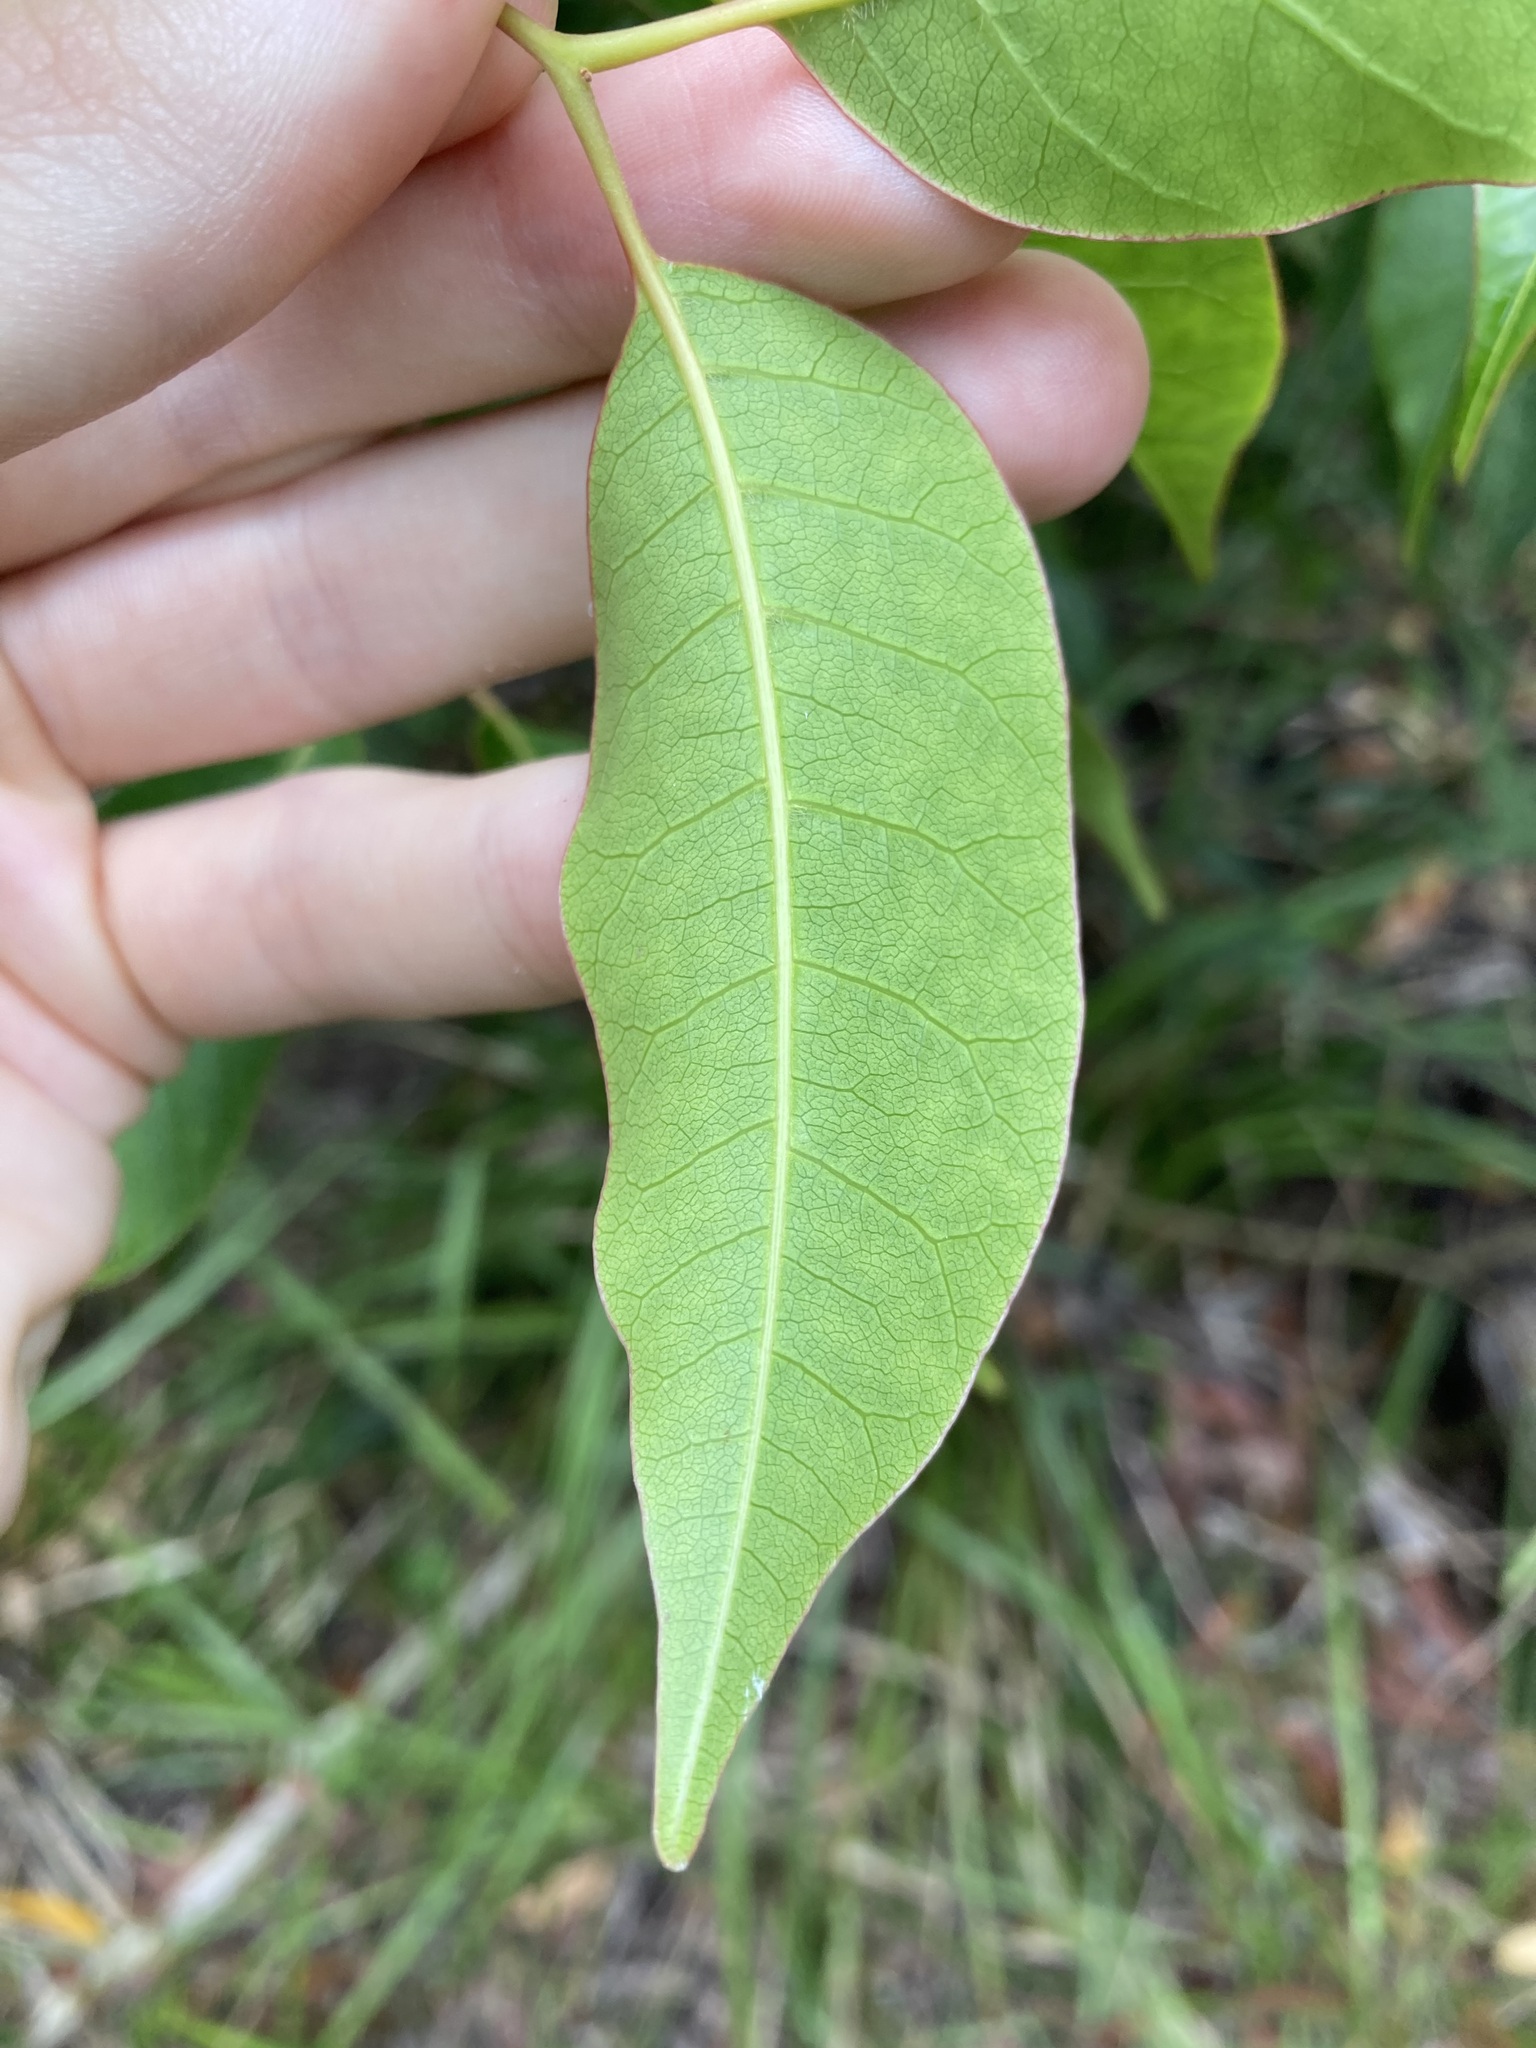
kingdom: Plantae
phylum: Tracheophyta
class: Magnoliopsida
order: Sapindales
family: Anacardiaceae
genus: Euroschinus
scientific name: Euroschinus falcatus
